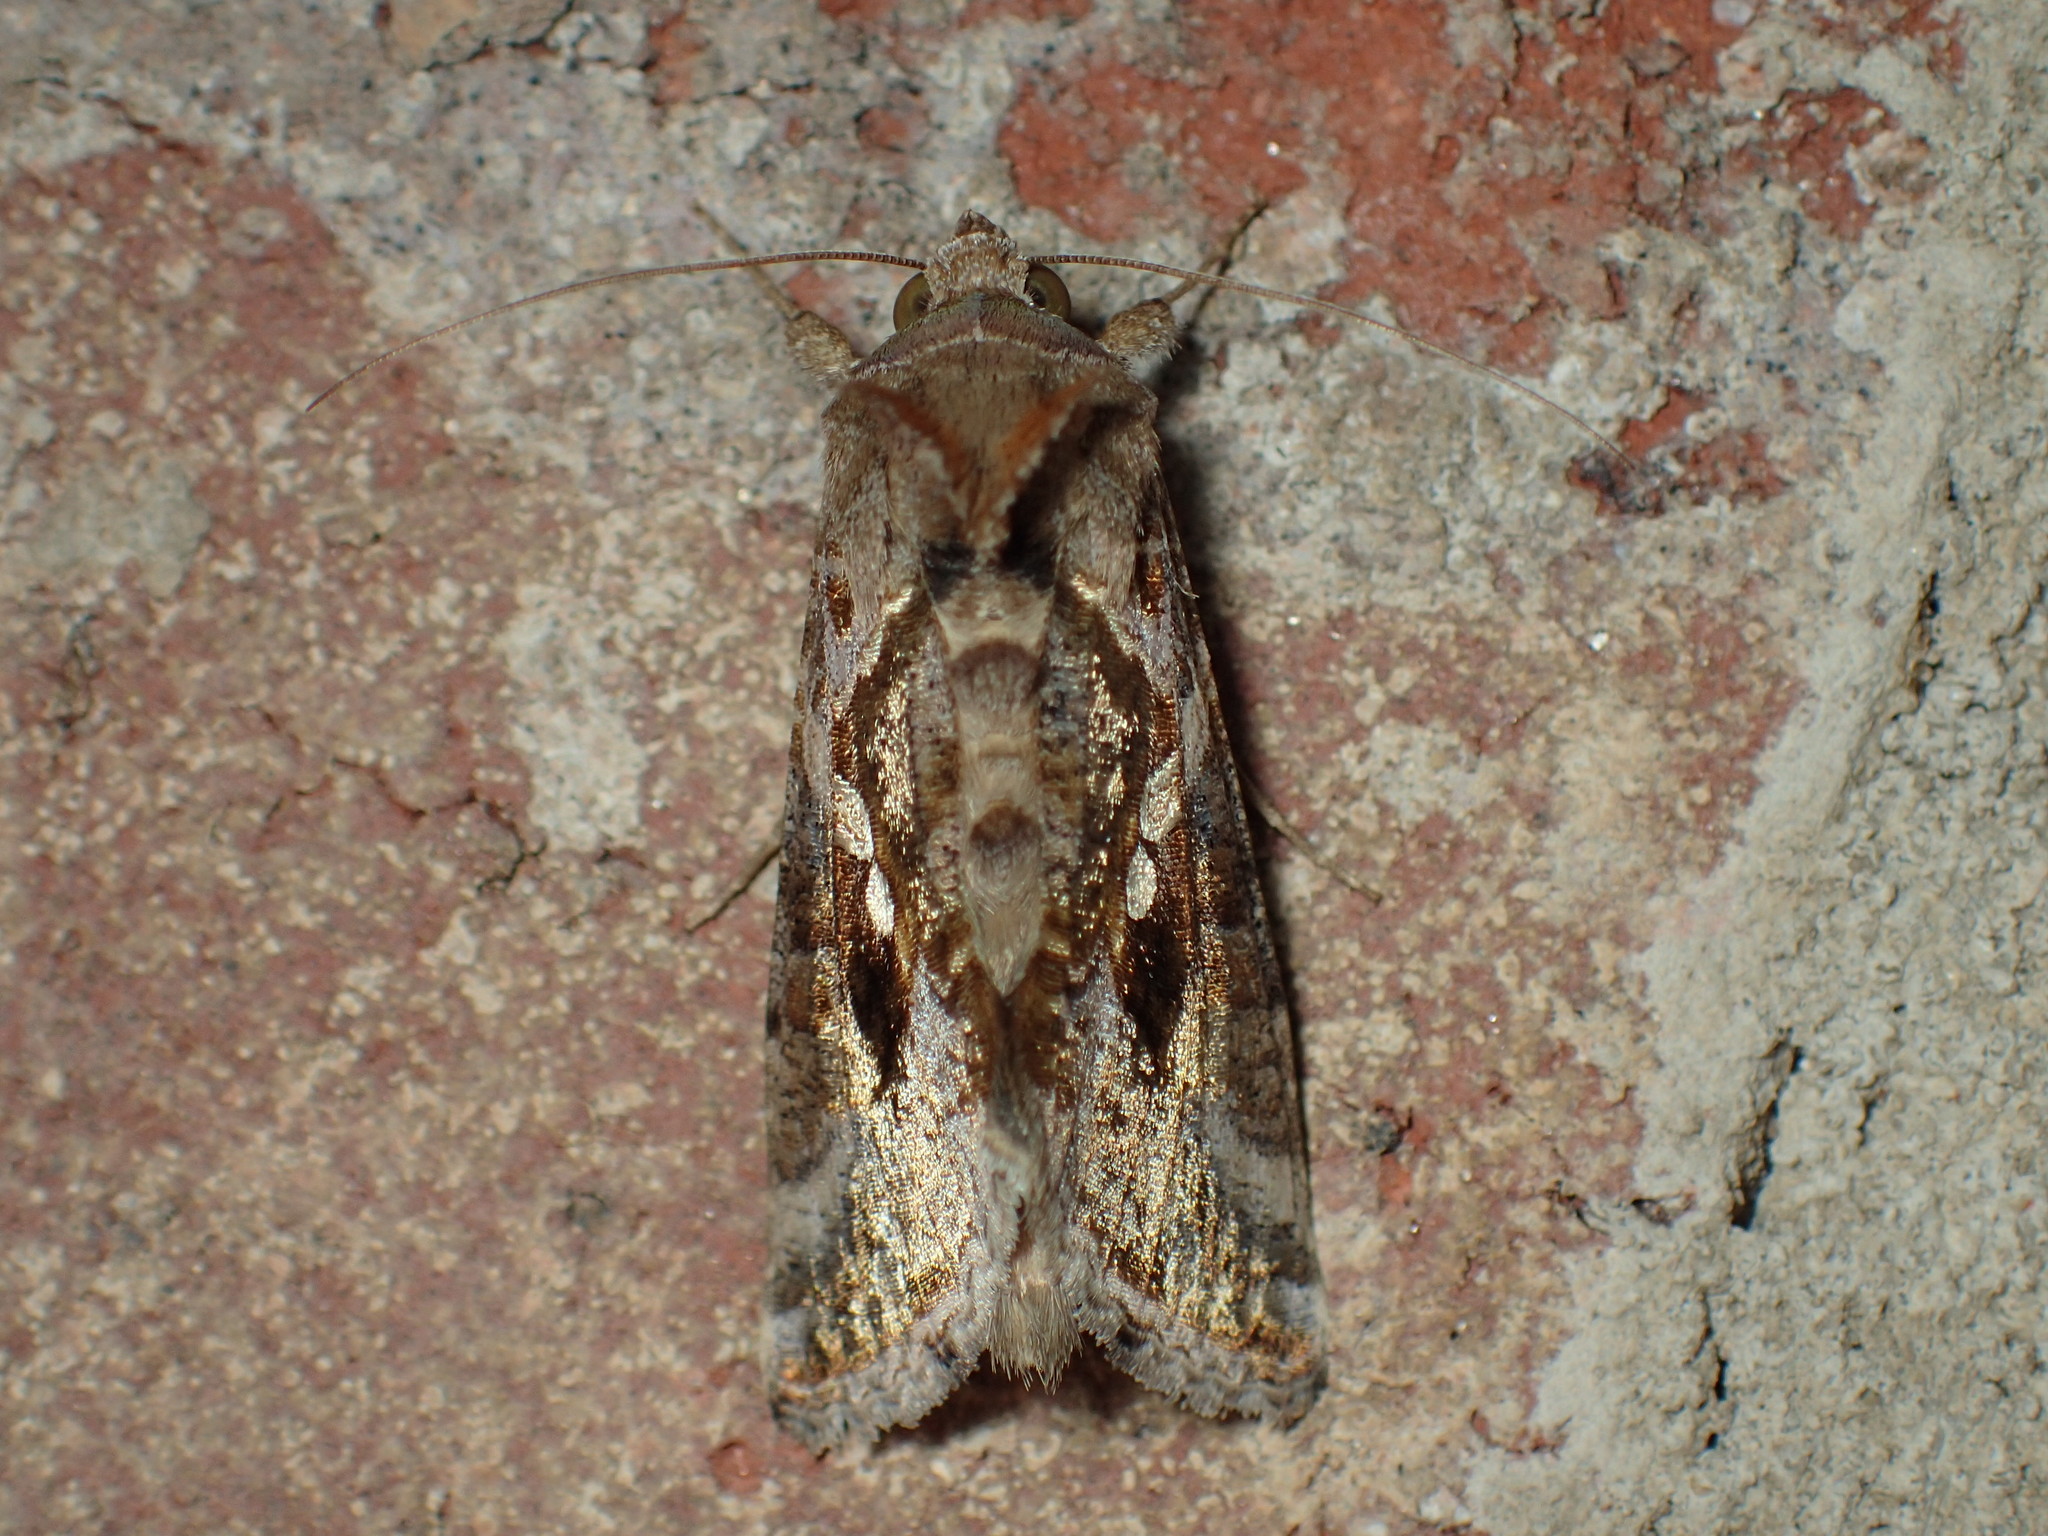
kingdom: Animalia
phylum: Arthropoda
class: Insecta
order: Lepidoptera
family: Noctuidae
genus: Chrysodeixis
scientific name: Chrysodeixis includens
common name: Cutworm moth
